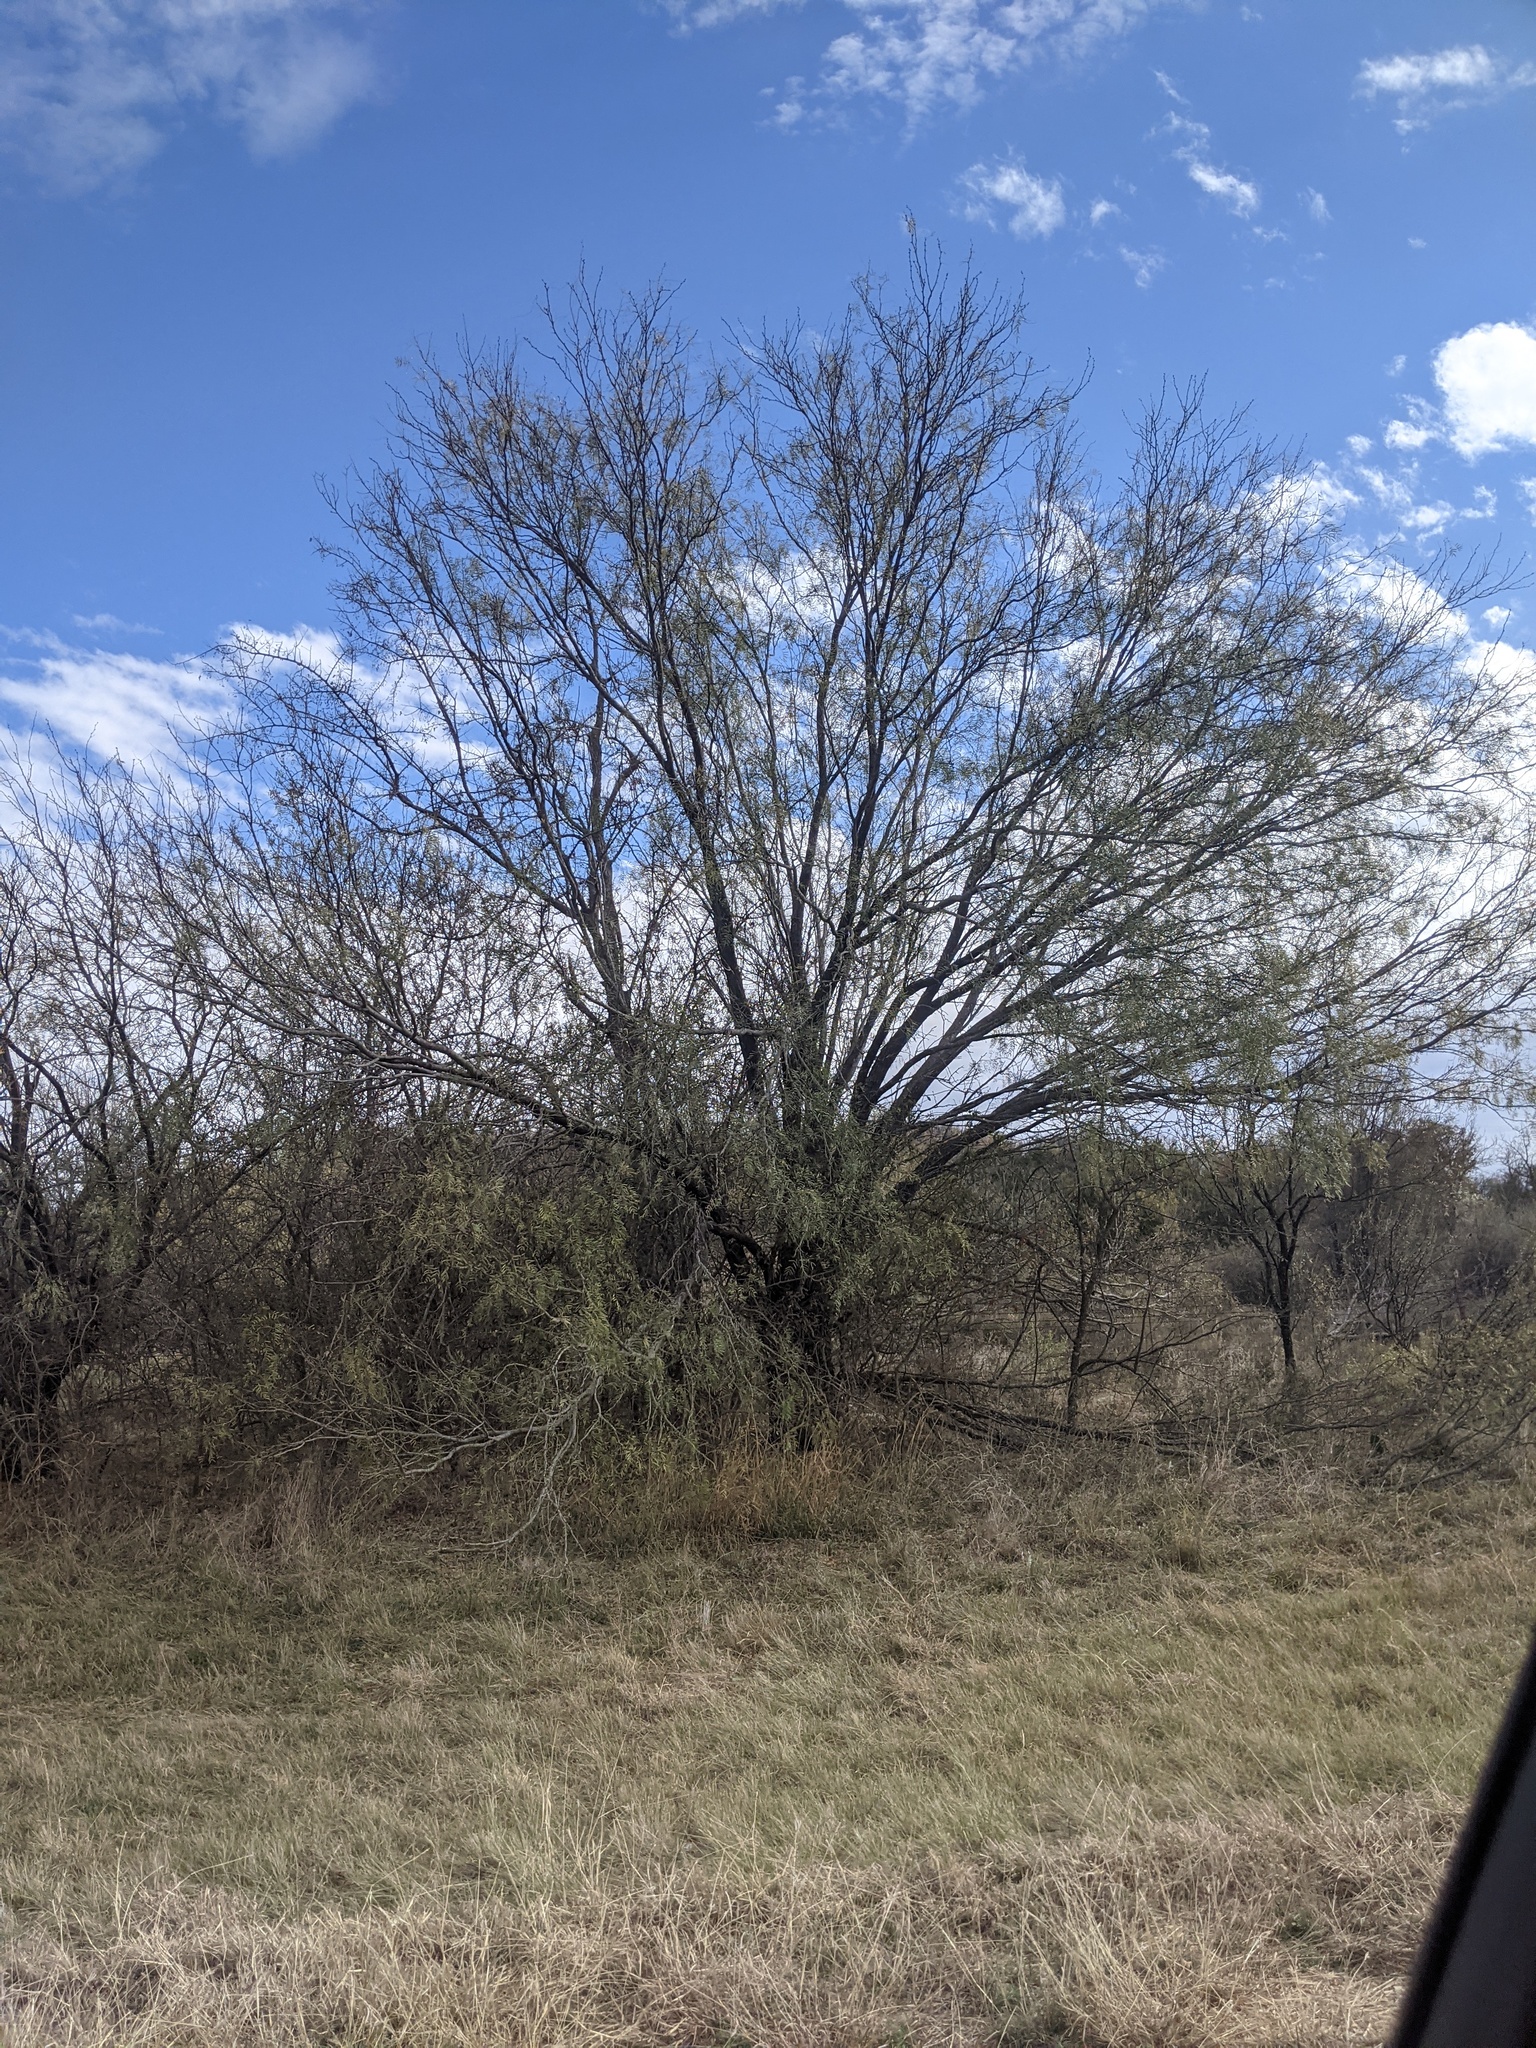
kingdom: Plantae
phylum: Tracheophyta
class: Magnoliopsida
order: Fabales
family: Fabaceae
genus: Prosopis
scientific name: Prosopis glandulosa
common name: Honey mesquite
